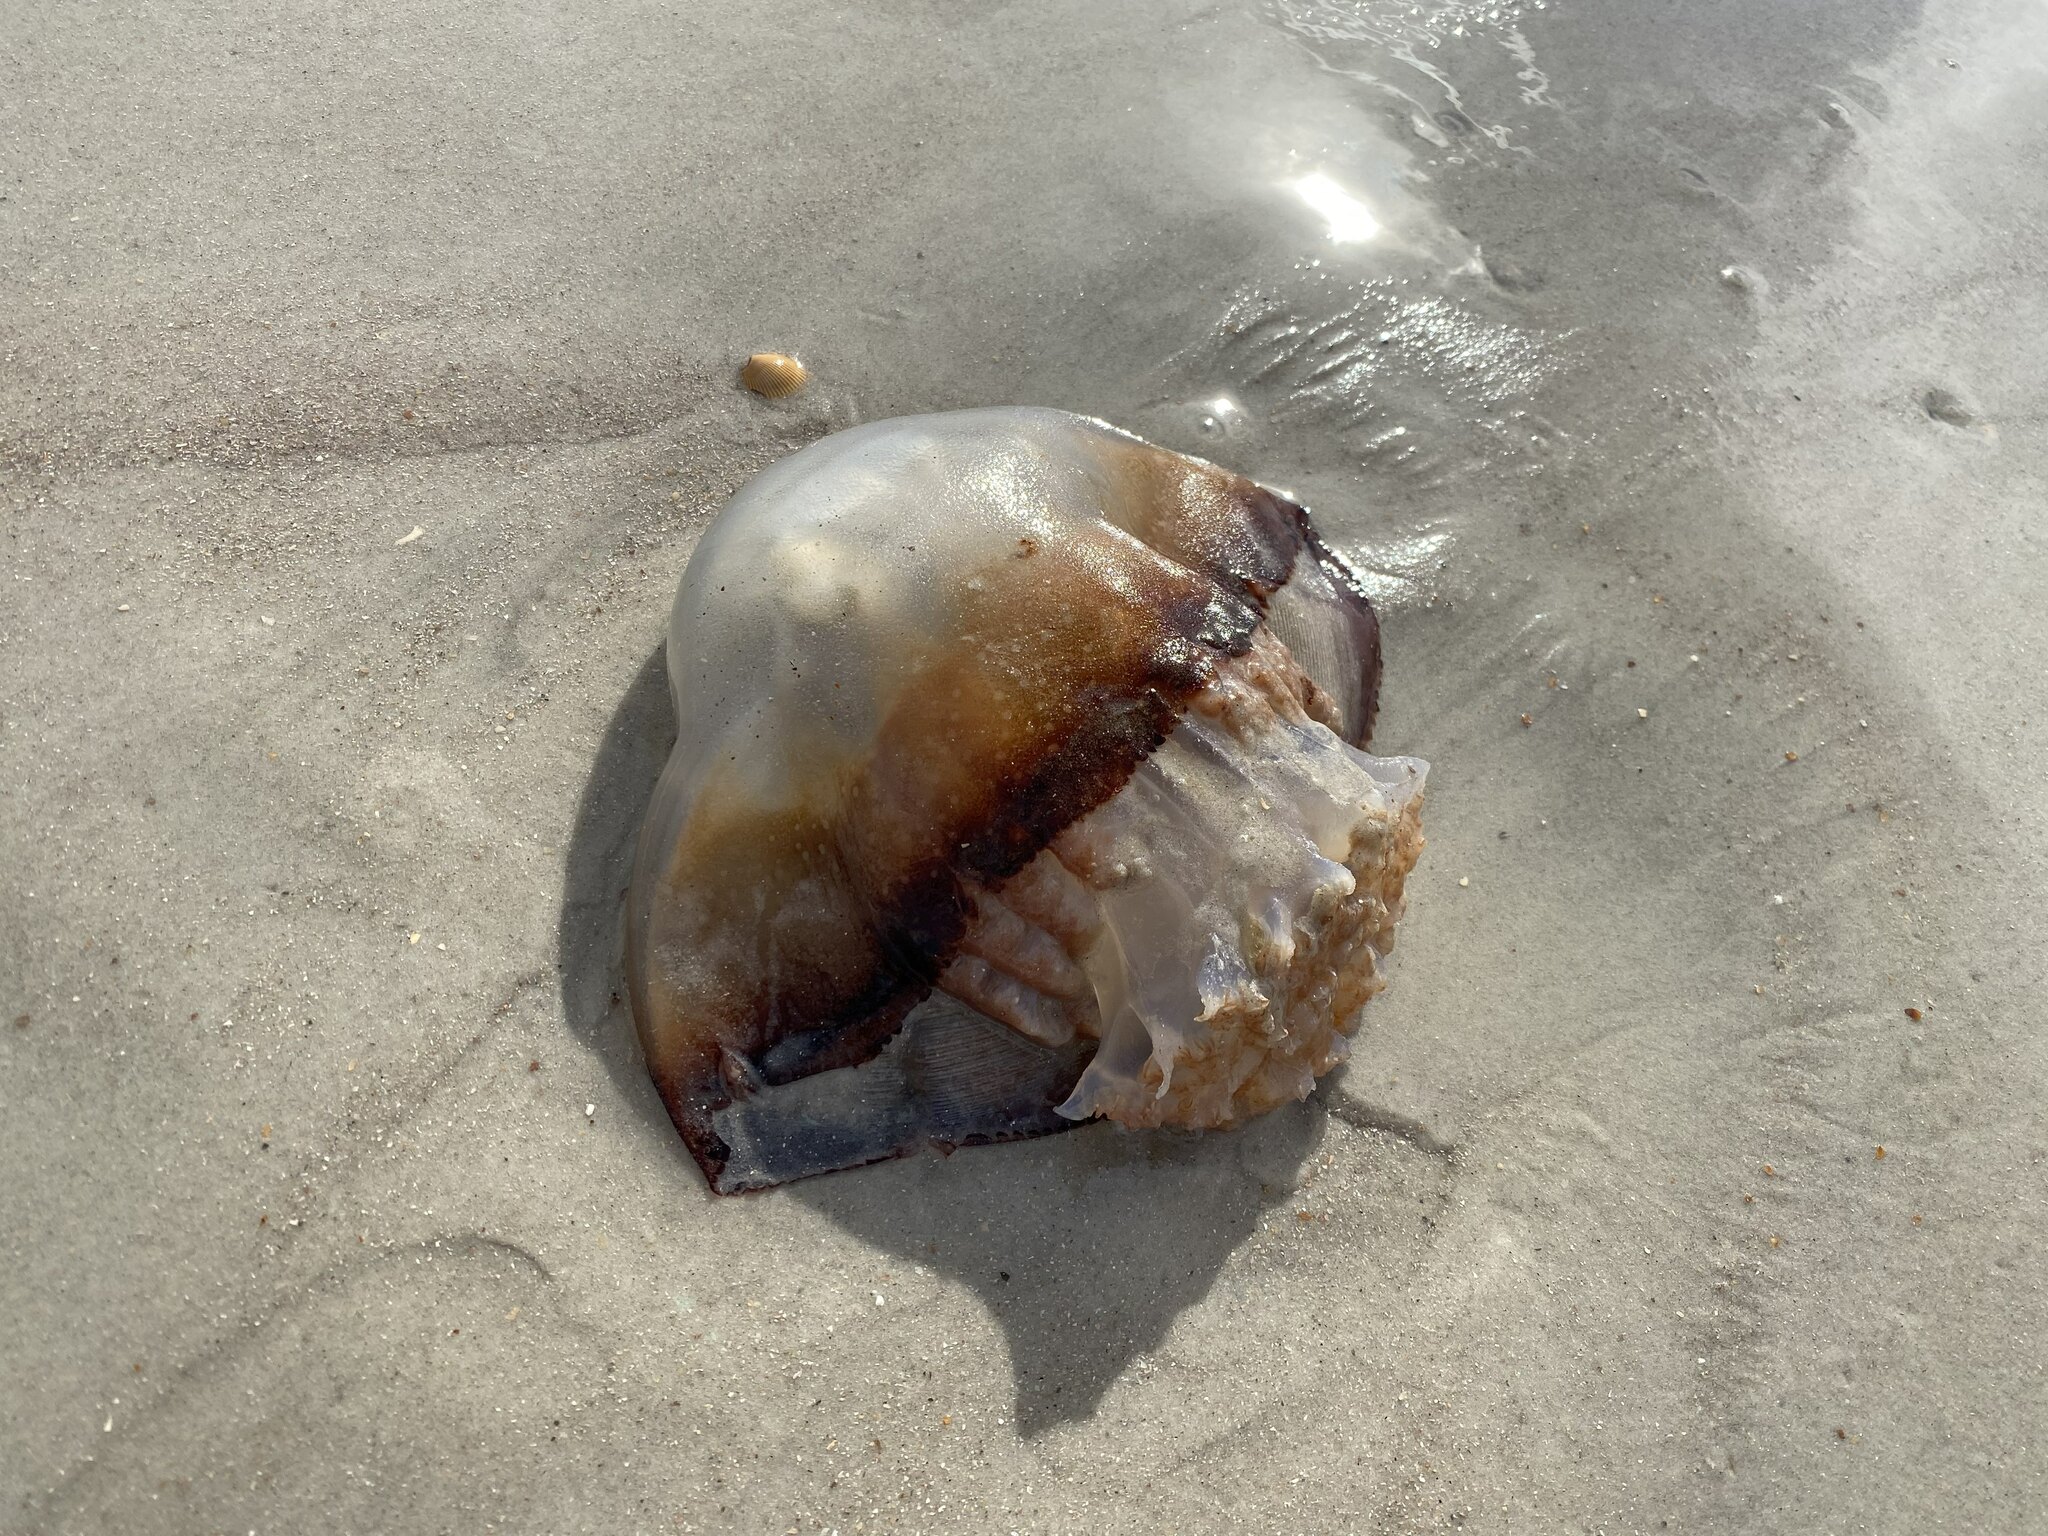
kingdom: Animalia
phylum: Cnidaria
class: Scyphozoa
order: Rhizostomeae
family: Stomolophidae
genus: Stomolophus
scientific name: Stomolophus meleagris
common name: Cabbagehead
